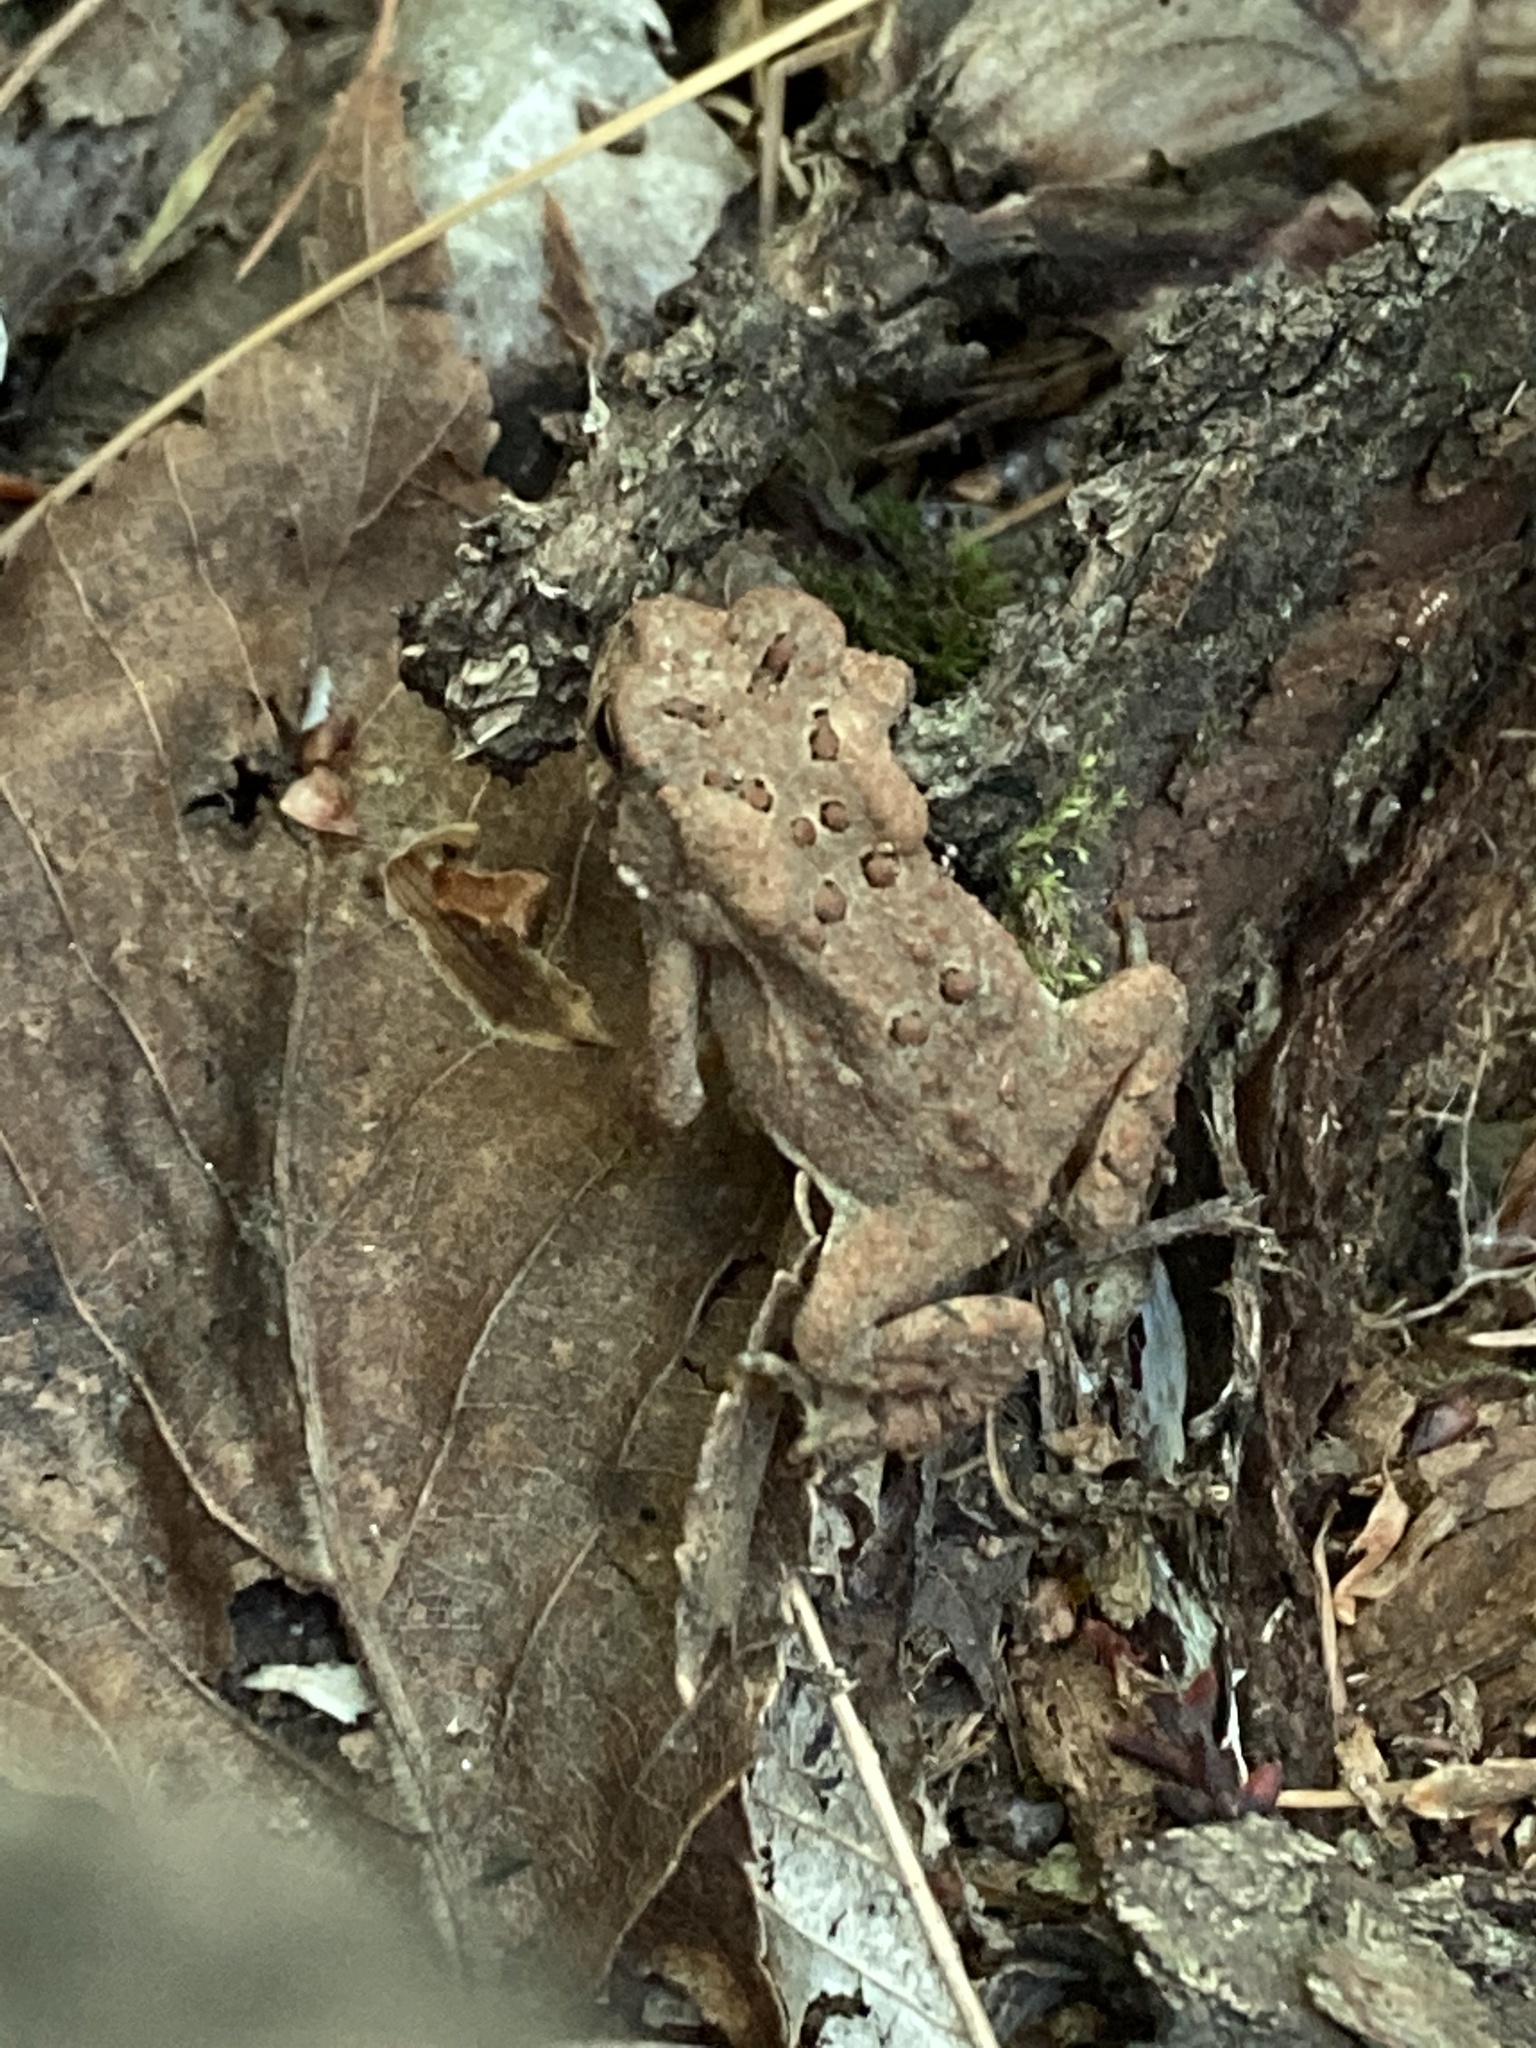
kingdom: Animalia
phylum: Chordata
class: Amphibia
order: Anura
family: Bufonidae
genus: Anaxyrus
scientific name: Anaxyrus americanus
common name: American toad
